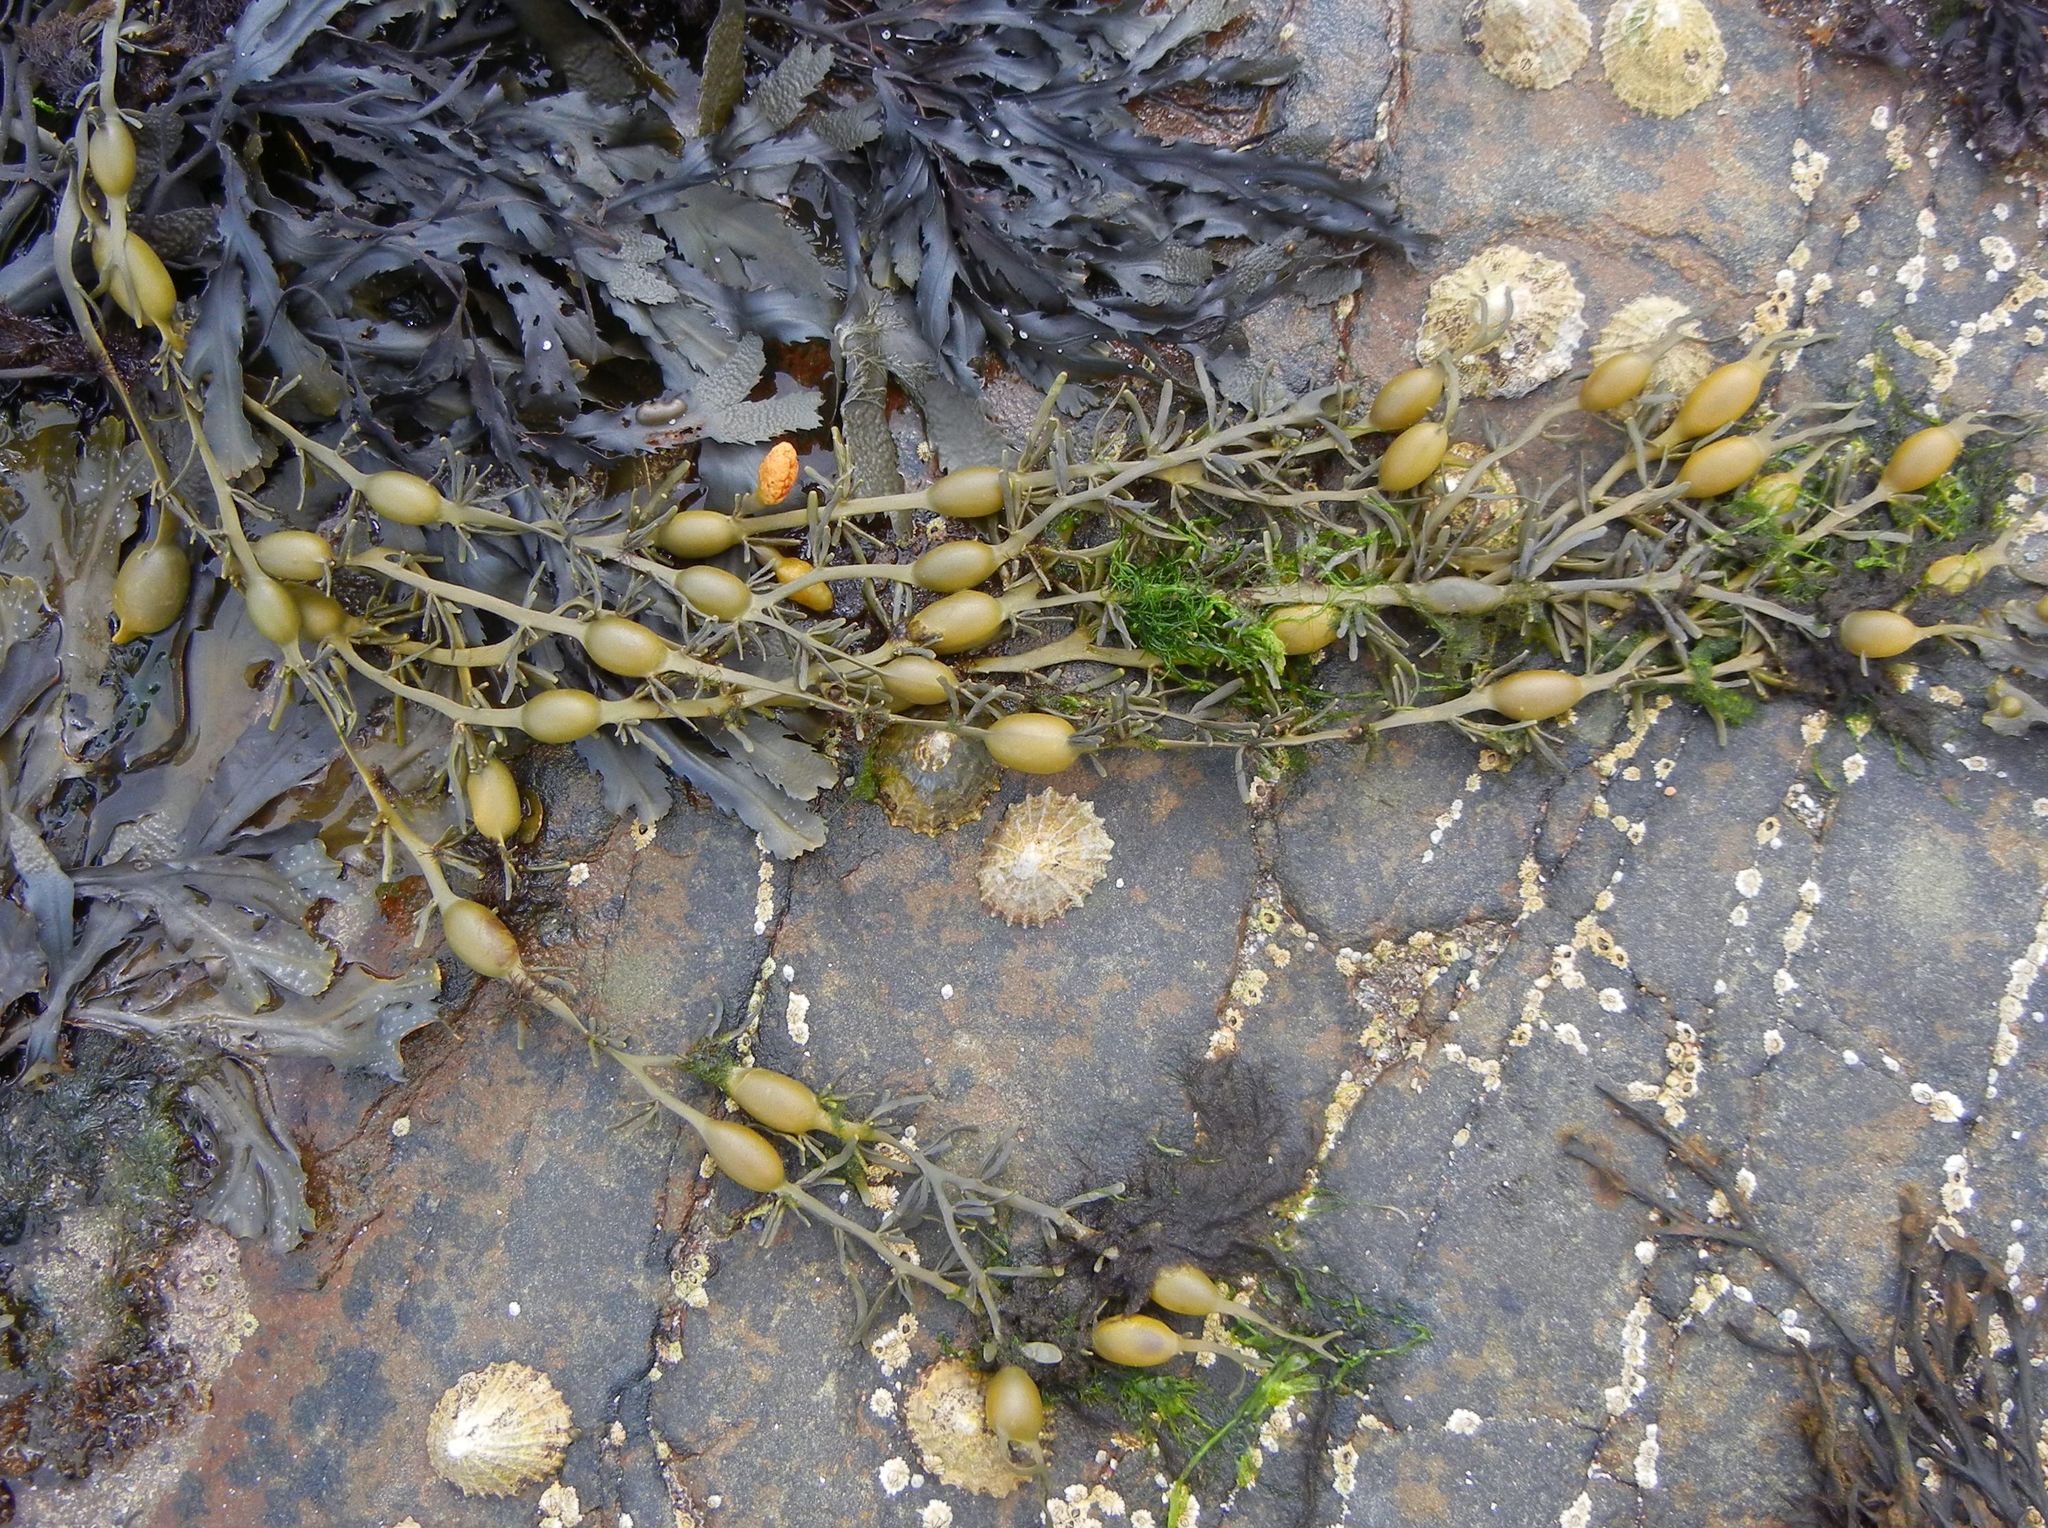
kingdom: Chromista
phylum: Ochrophyta
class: Phaeophyceae
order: Fucales
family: Fucaceae
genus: Ascophyllum
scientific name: Ascophyllum nodosum
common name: Knotted wrack
